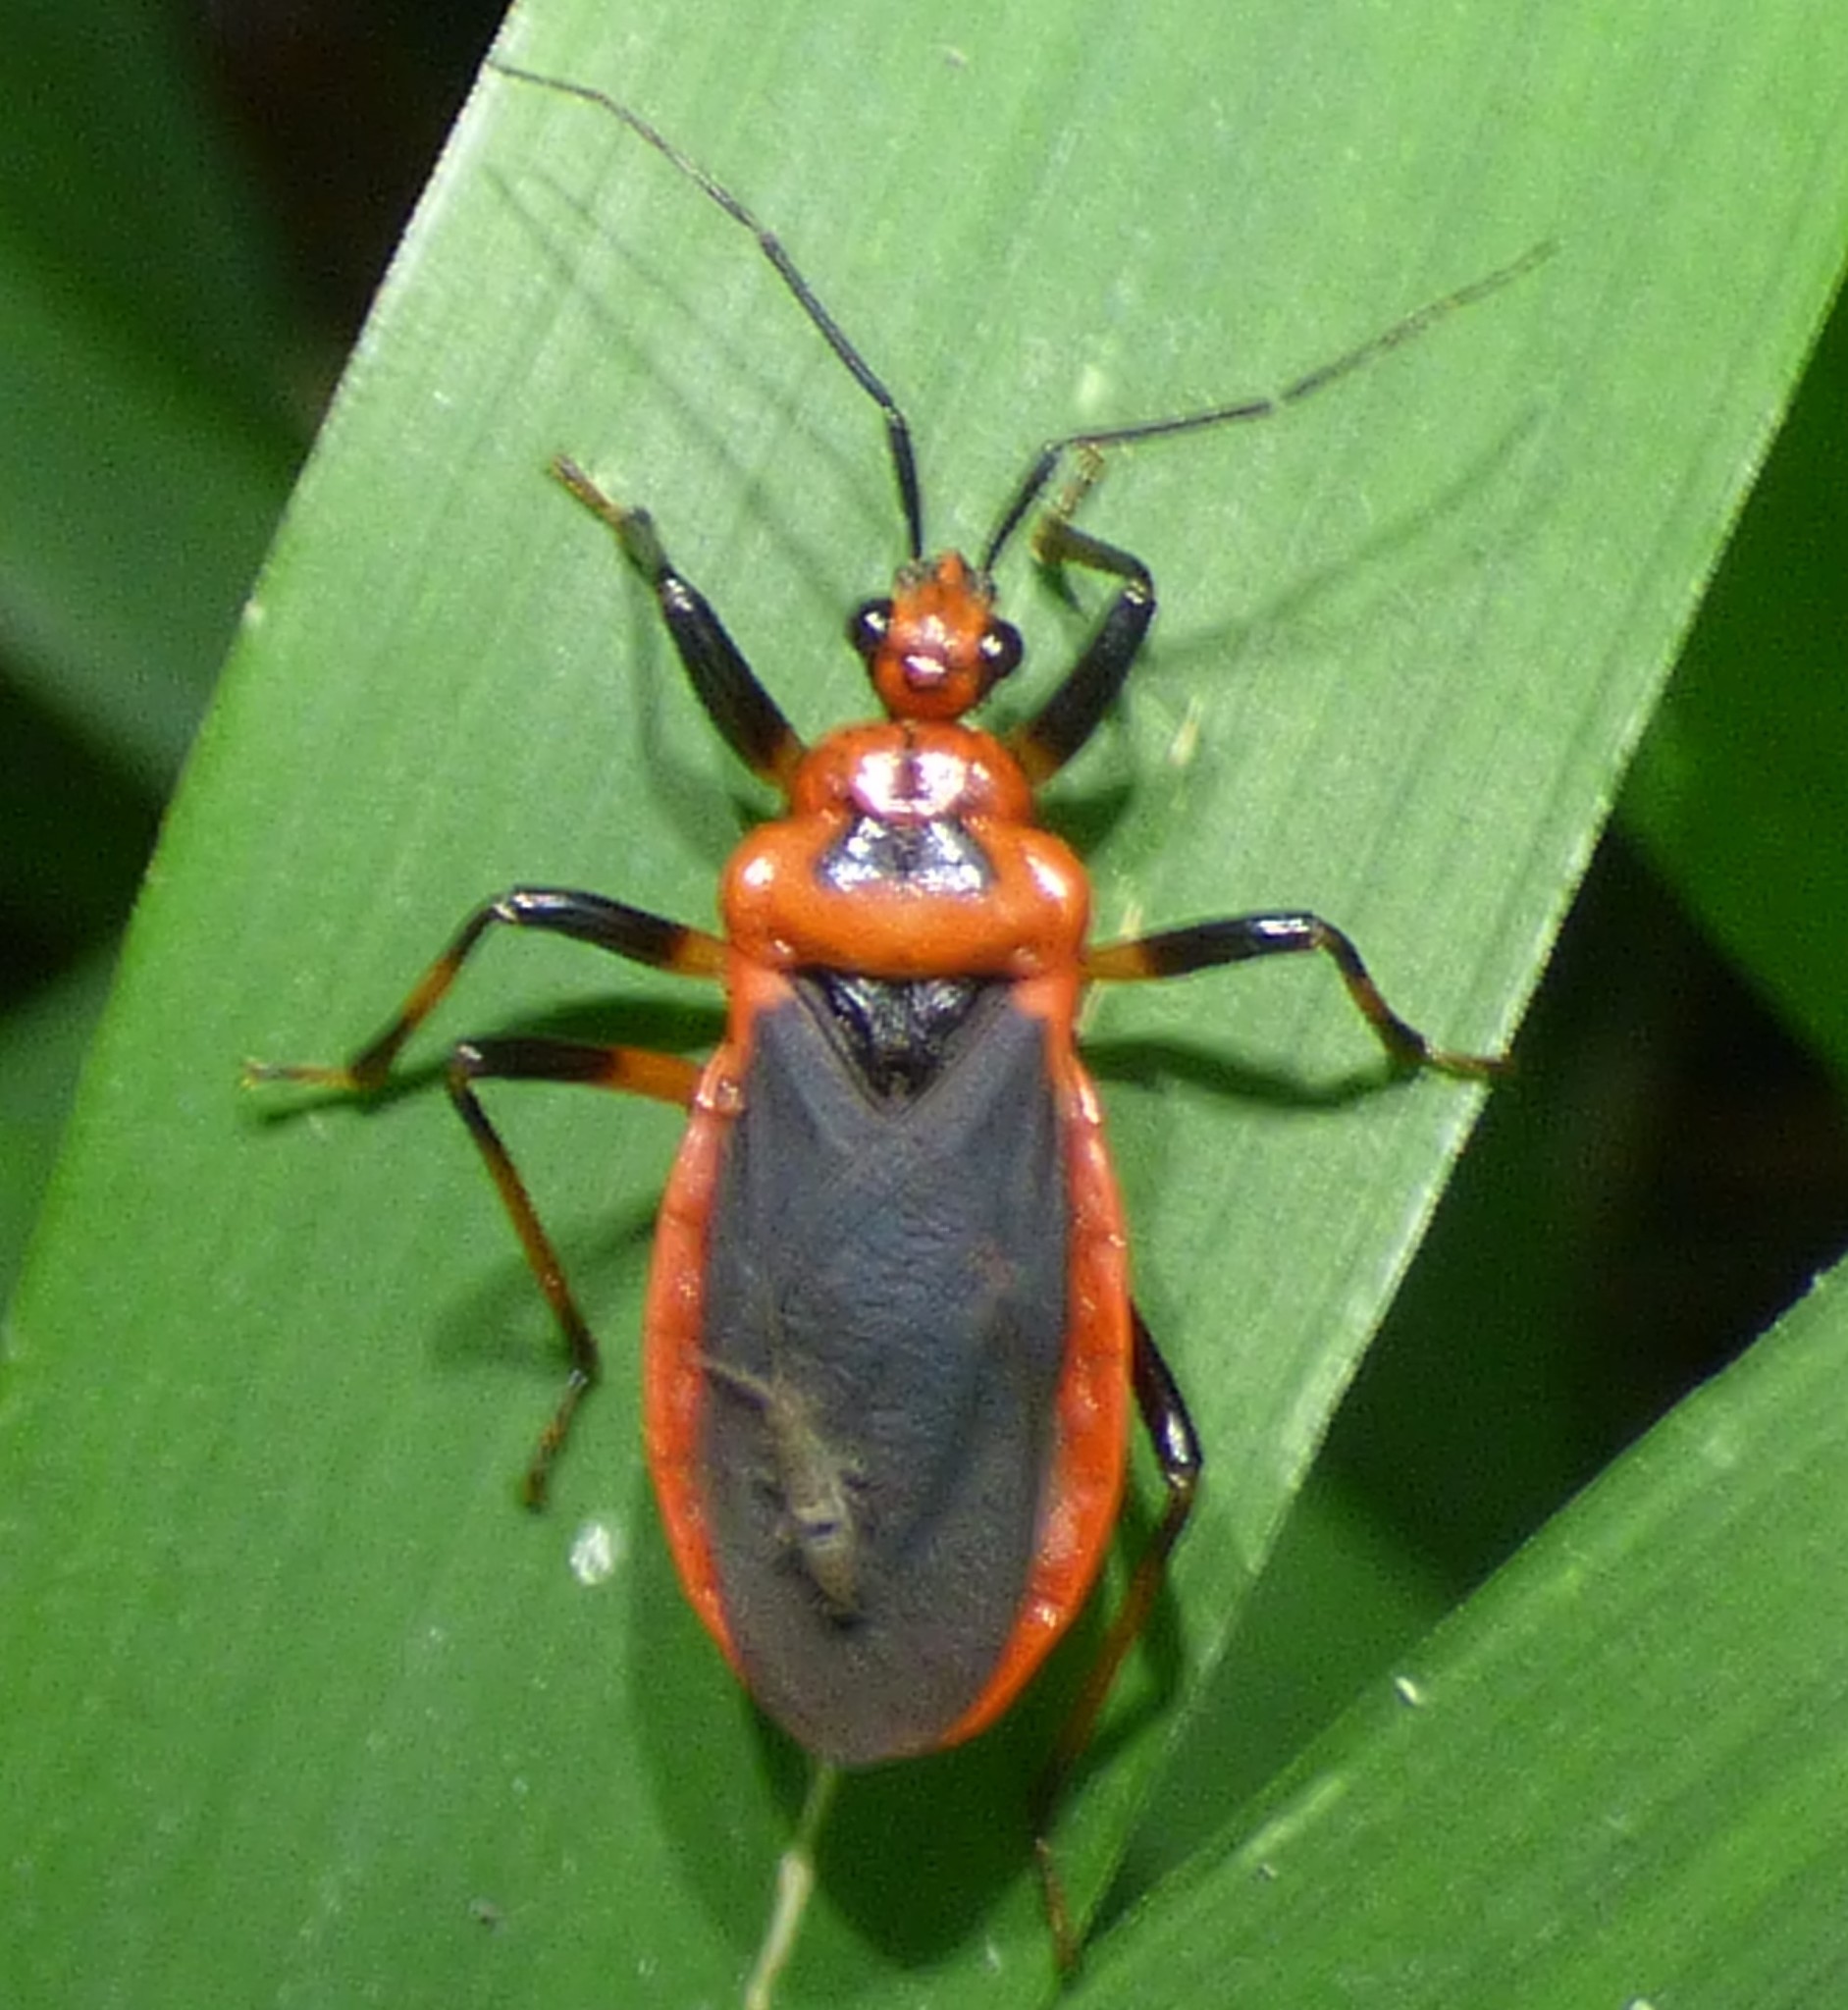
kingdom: Animalia
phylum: Arthropoda
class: Insecta
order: Hemiptera
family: Reduviidae
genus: Rhiginia
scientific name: Rhiginia cruciata
